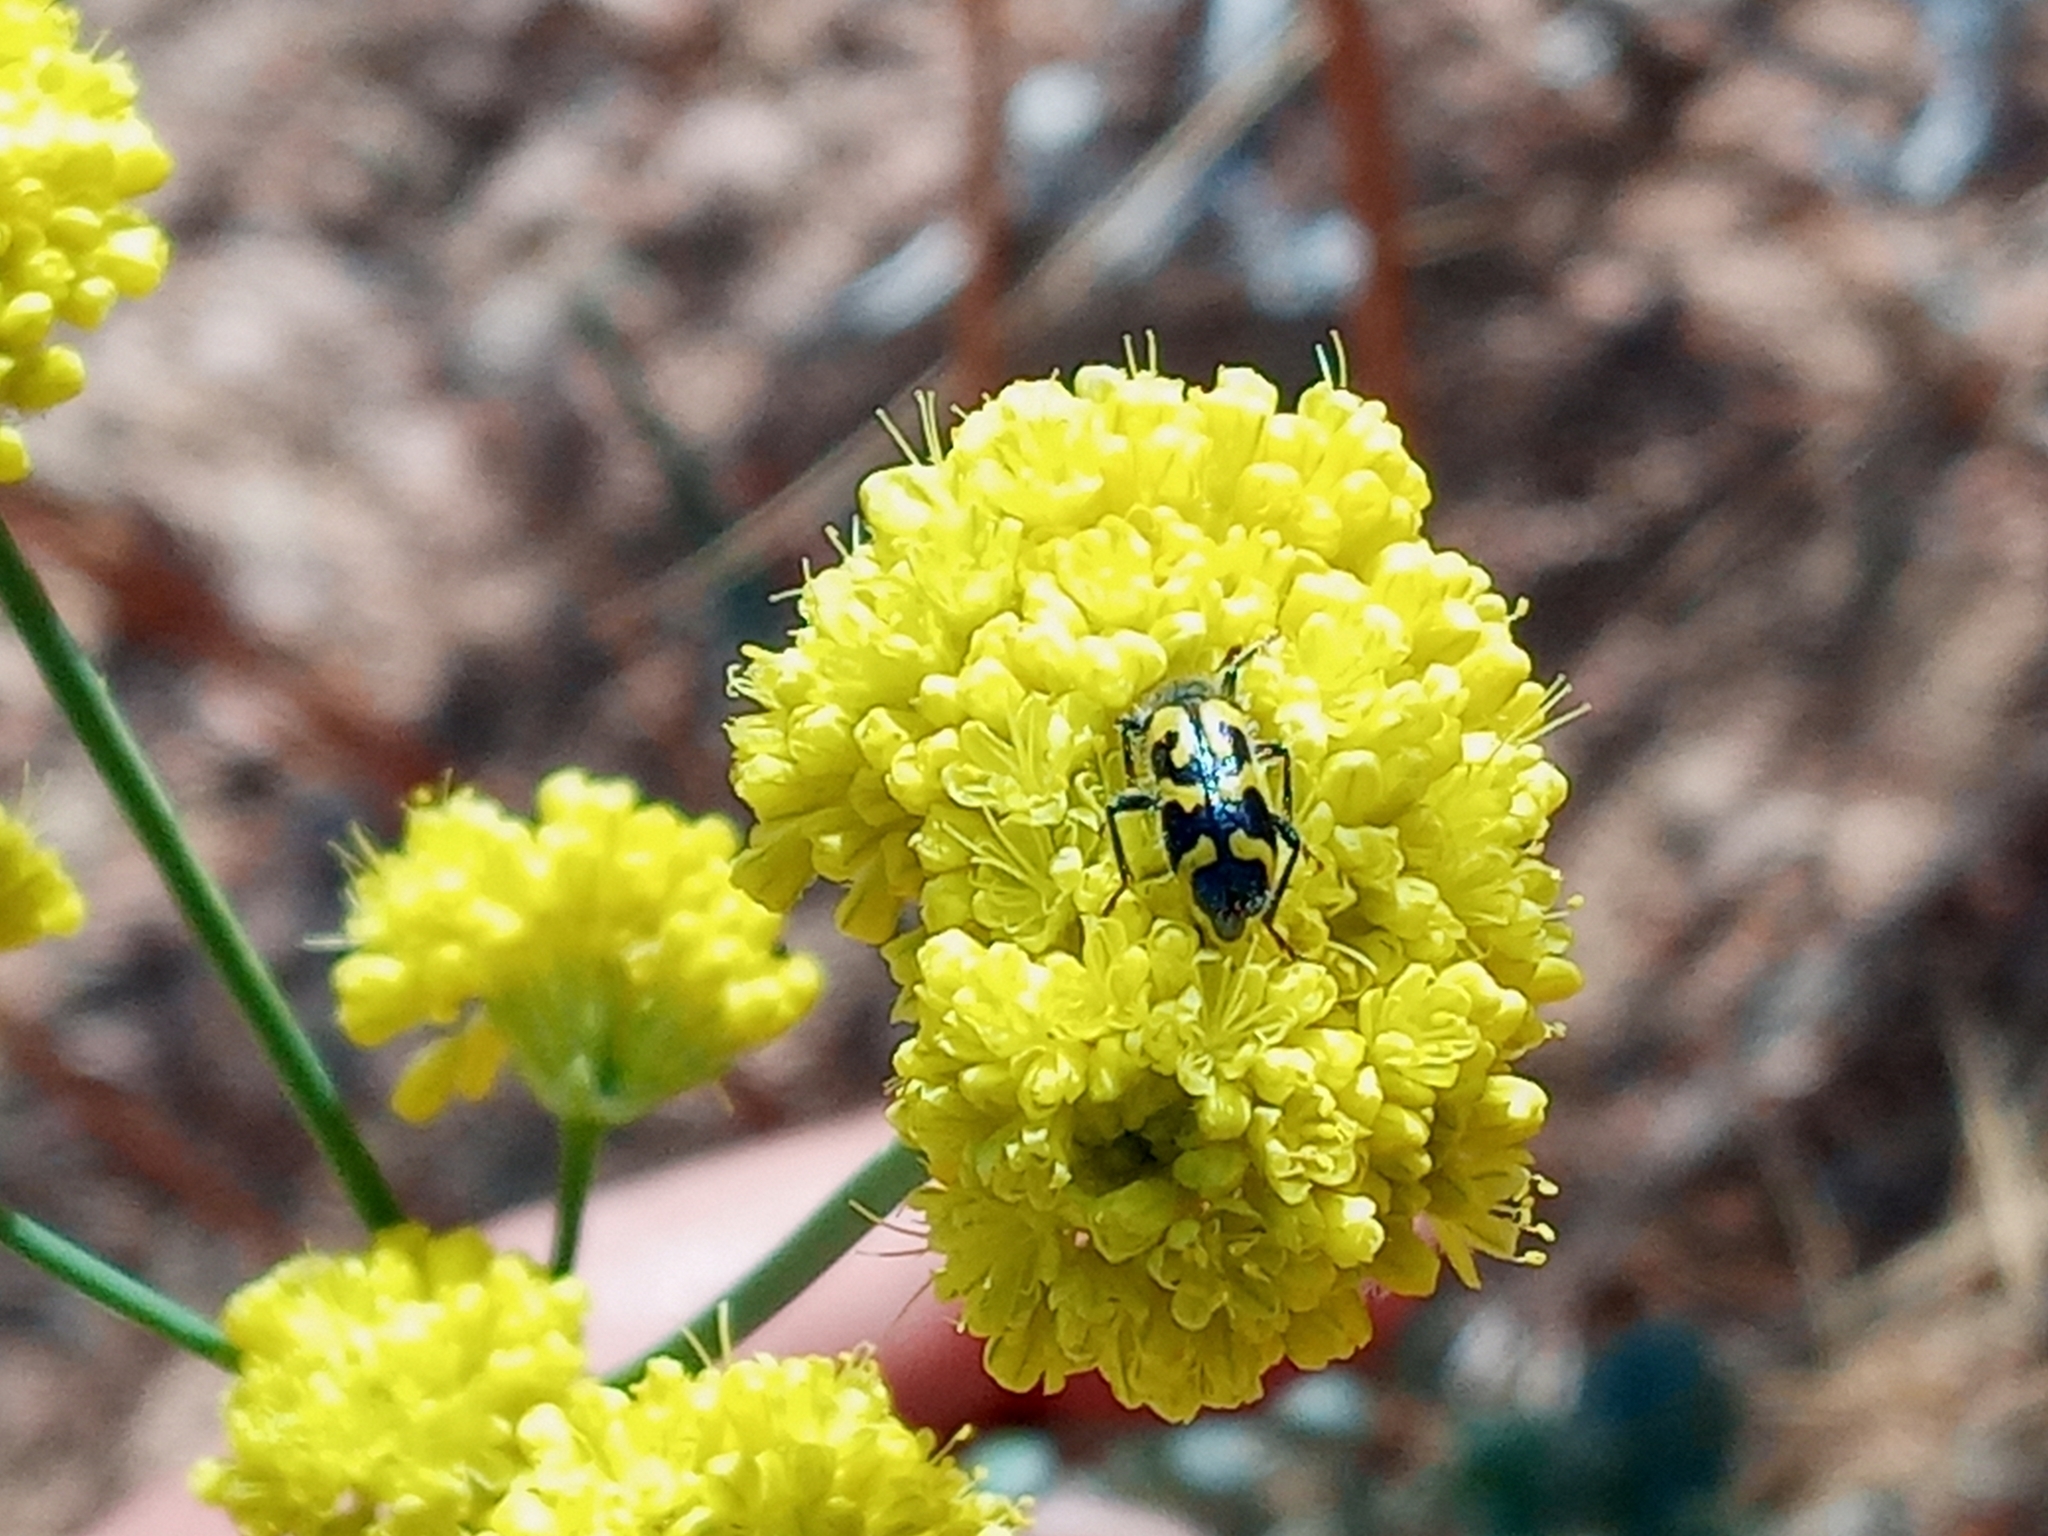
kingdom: Animalia
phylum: Arthropoda
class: Insecta
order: Coleoptera
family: Cleridae
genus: Trichodes
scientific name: Trichodes ornatus
